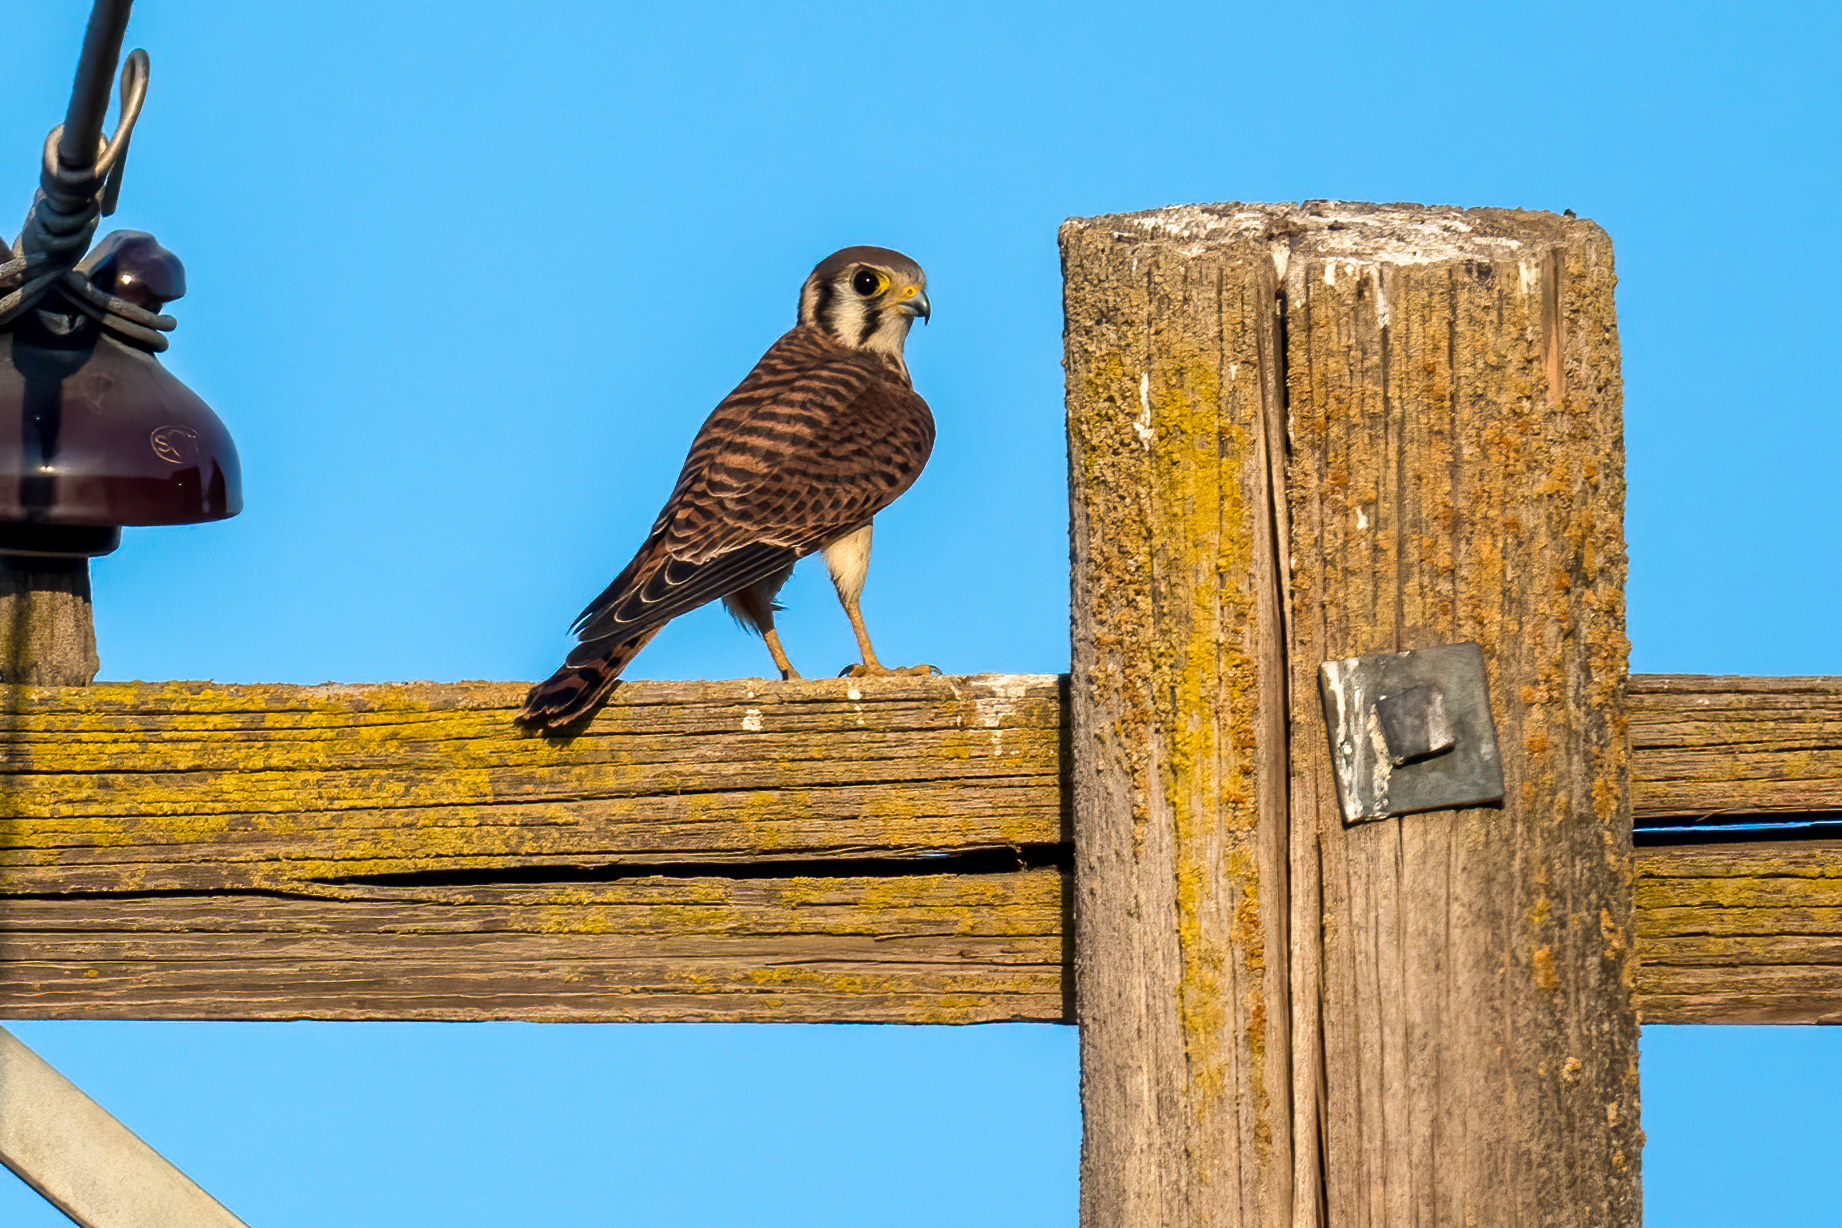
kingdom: Animalia
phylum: Chordata
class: Aves
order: Falconiformes
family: Falconidae
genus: Falco
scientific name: Falco sparverius
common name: American kestrel
